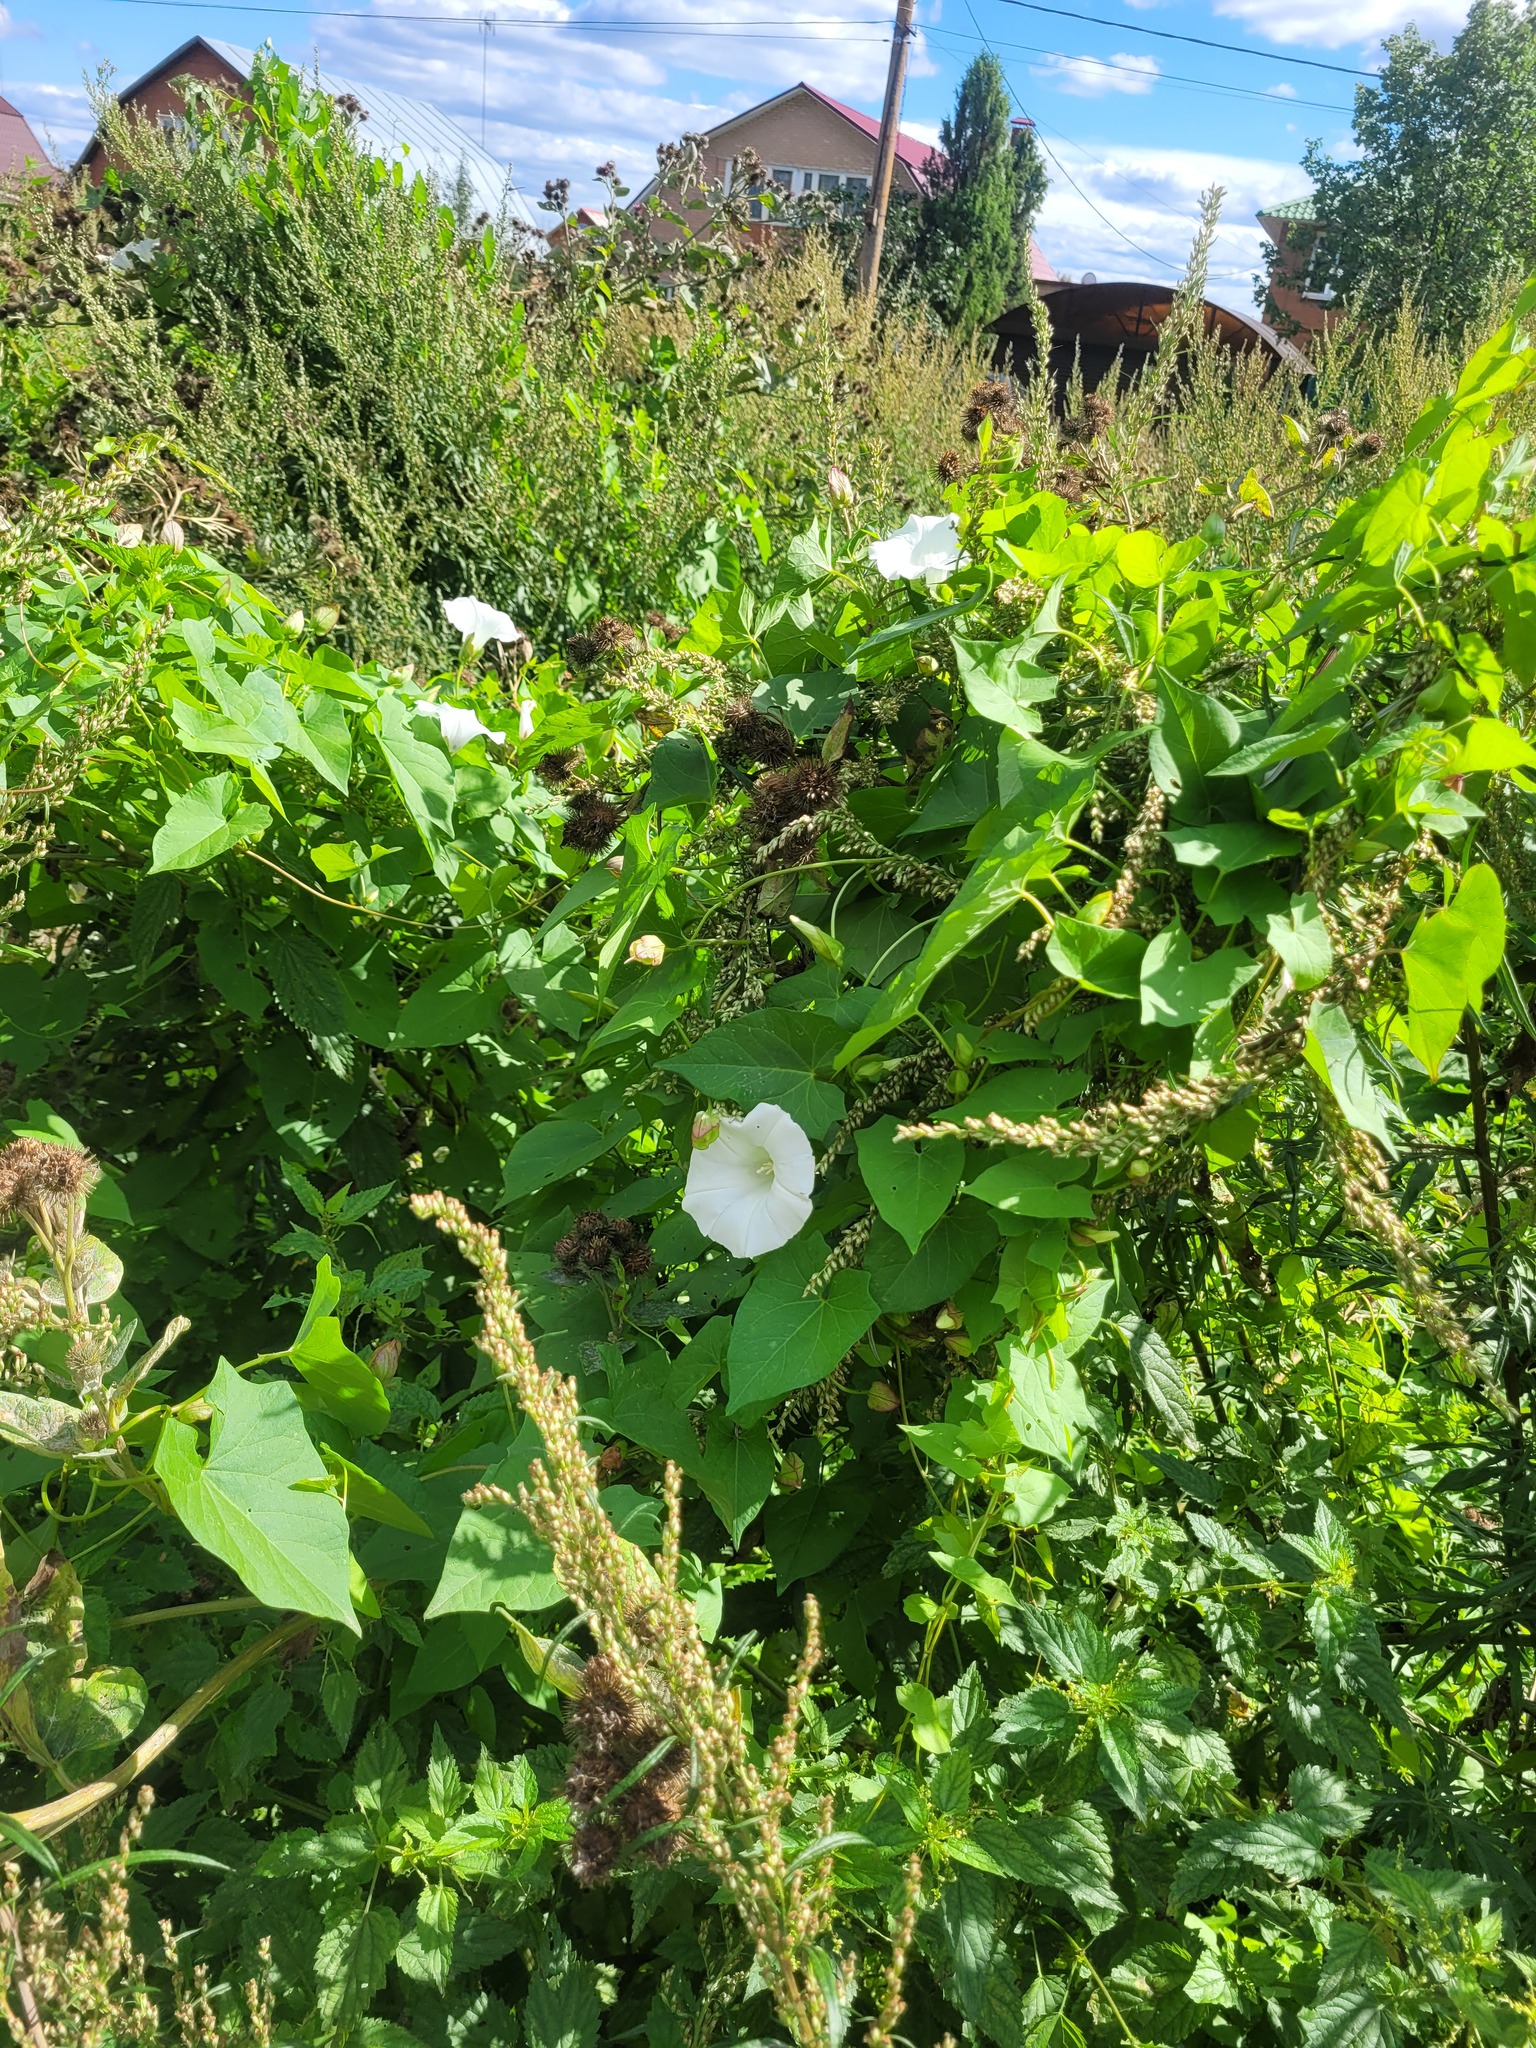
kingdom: Plantae
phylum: Tracheophyta
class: Magnoliopsida
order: Solanales
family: Convolvulaceae
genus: Calystegia
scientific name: Calystegia sepium
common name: Hedge bindweed
